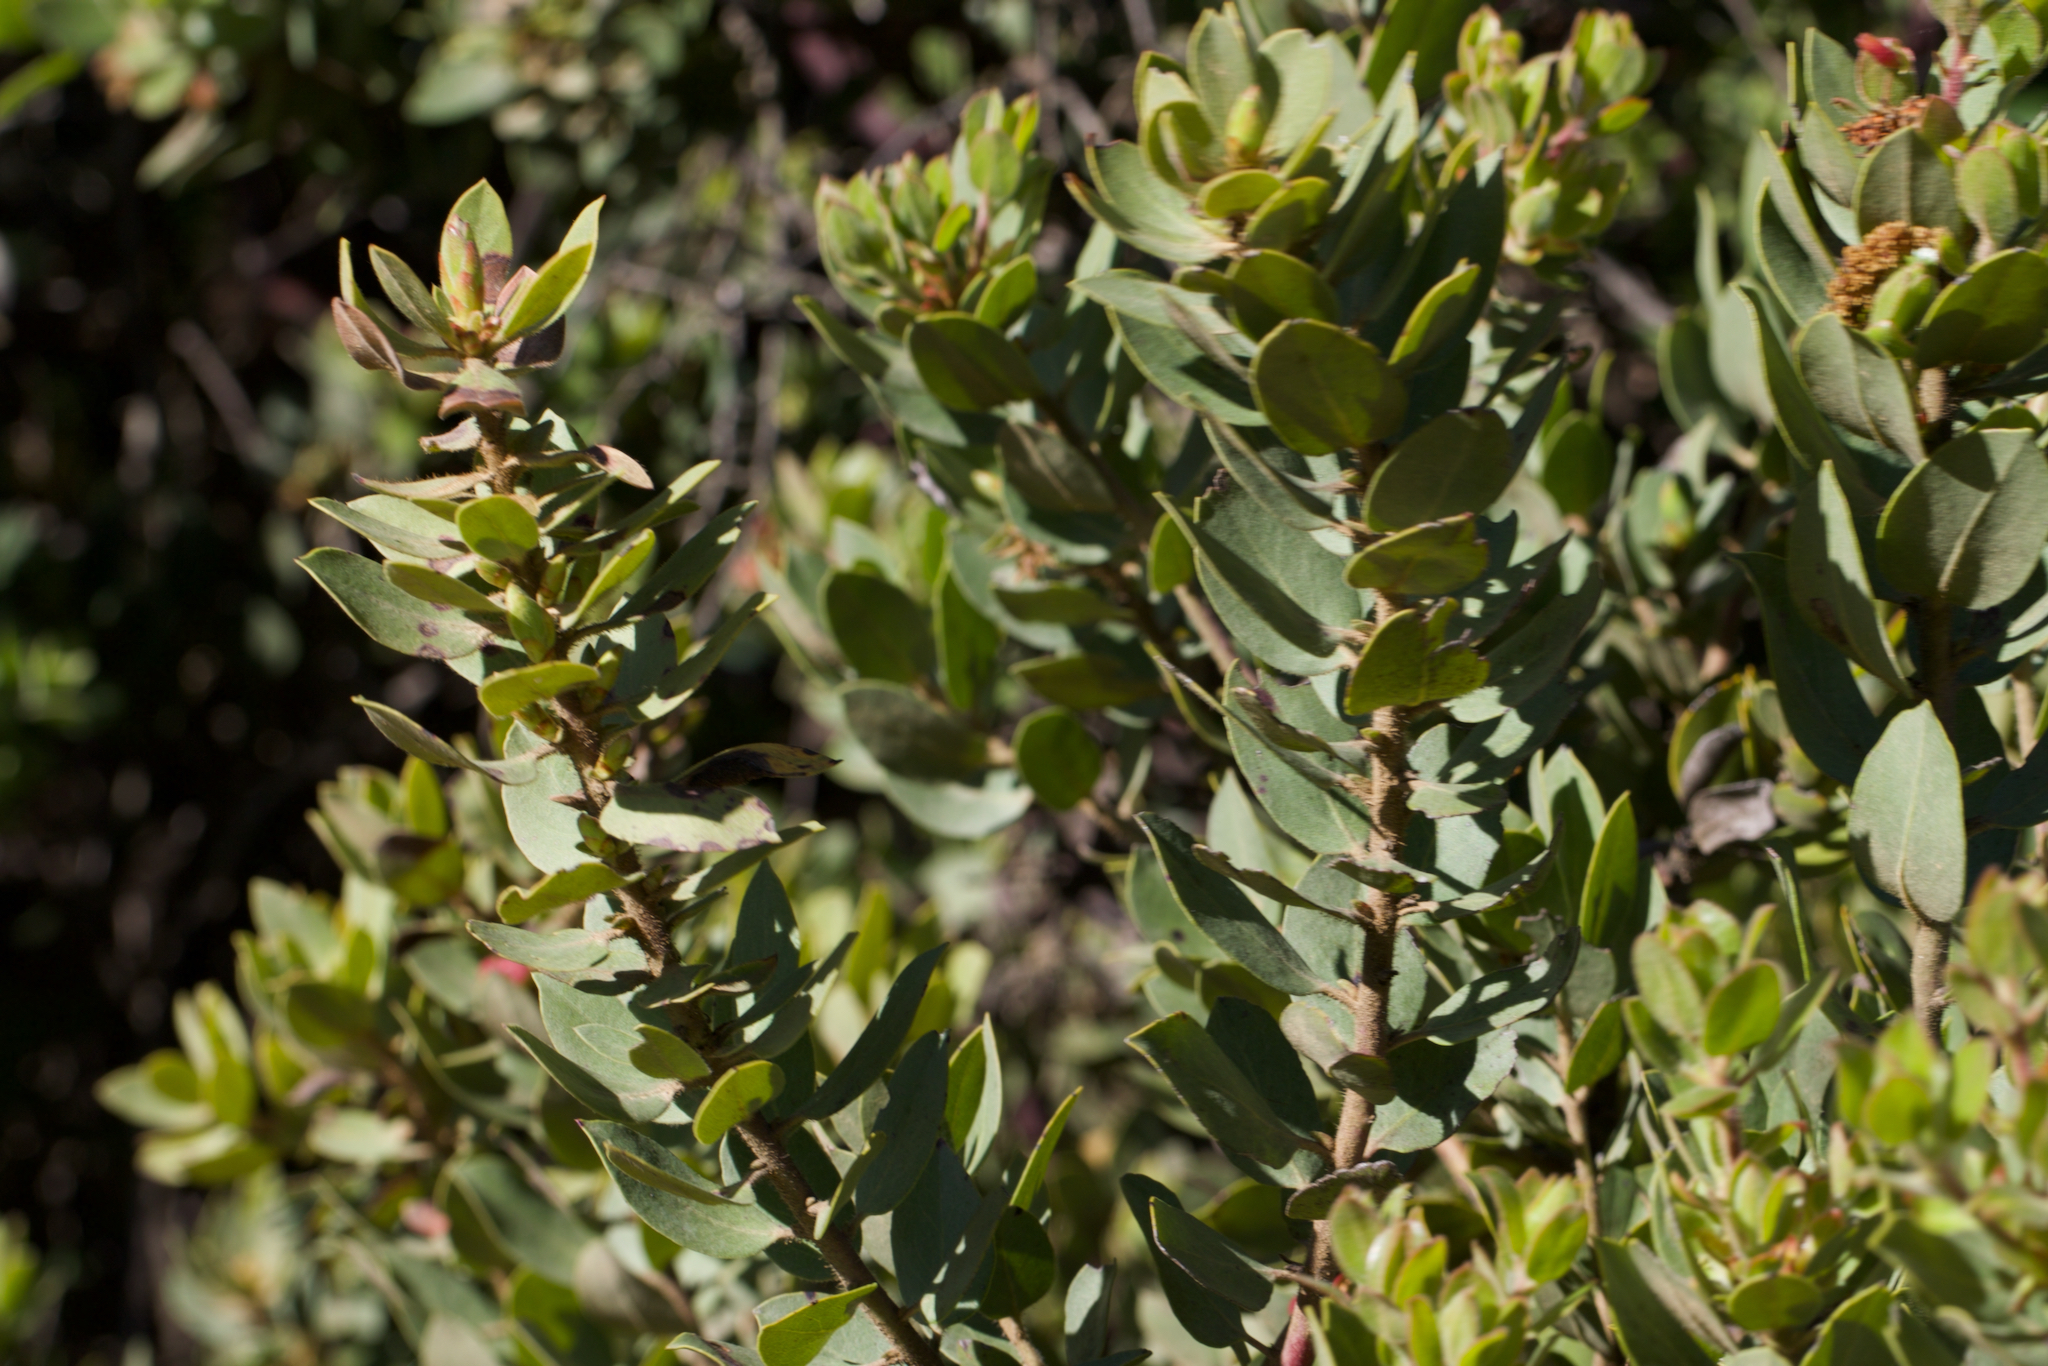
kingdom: Plantae
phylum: Tracheophyta
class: Magnoliopsida
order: Ericales
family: Ericaceae
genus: Arctostaphylos
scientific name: Arctostaphylos glandulosa
